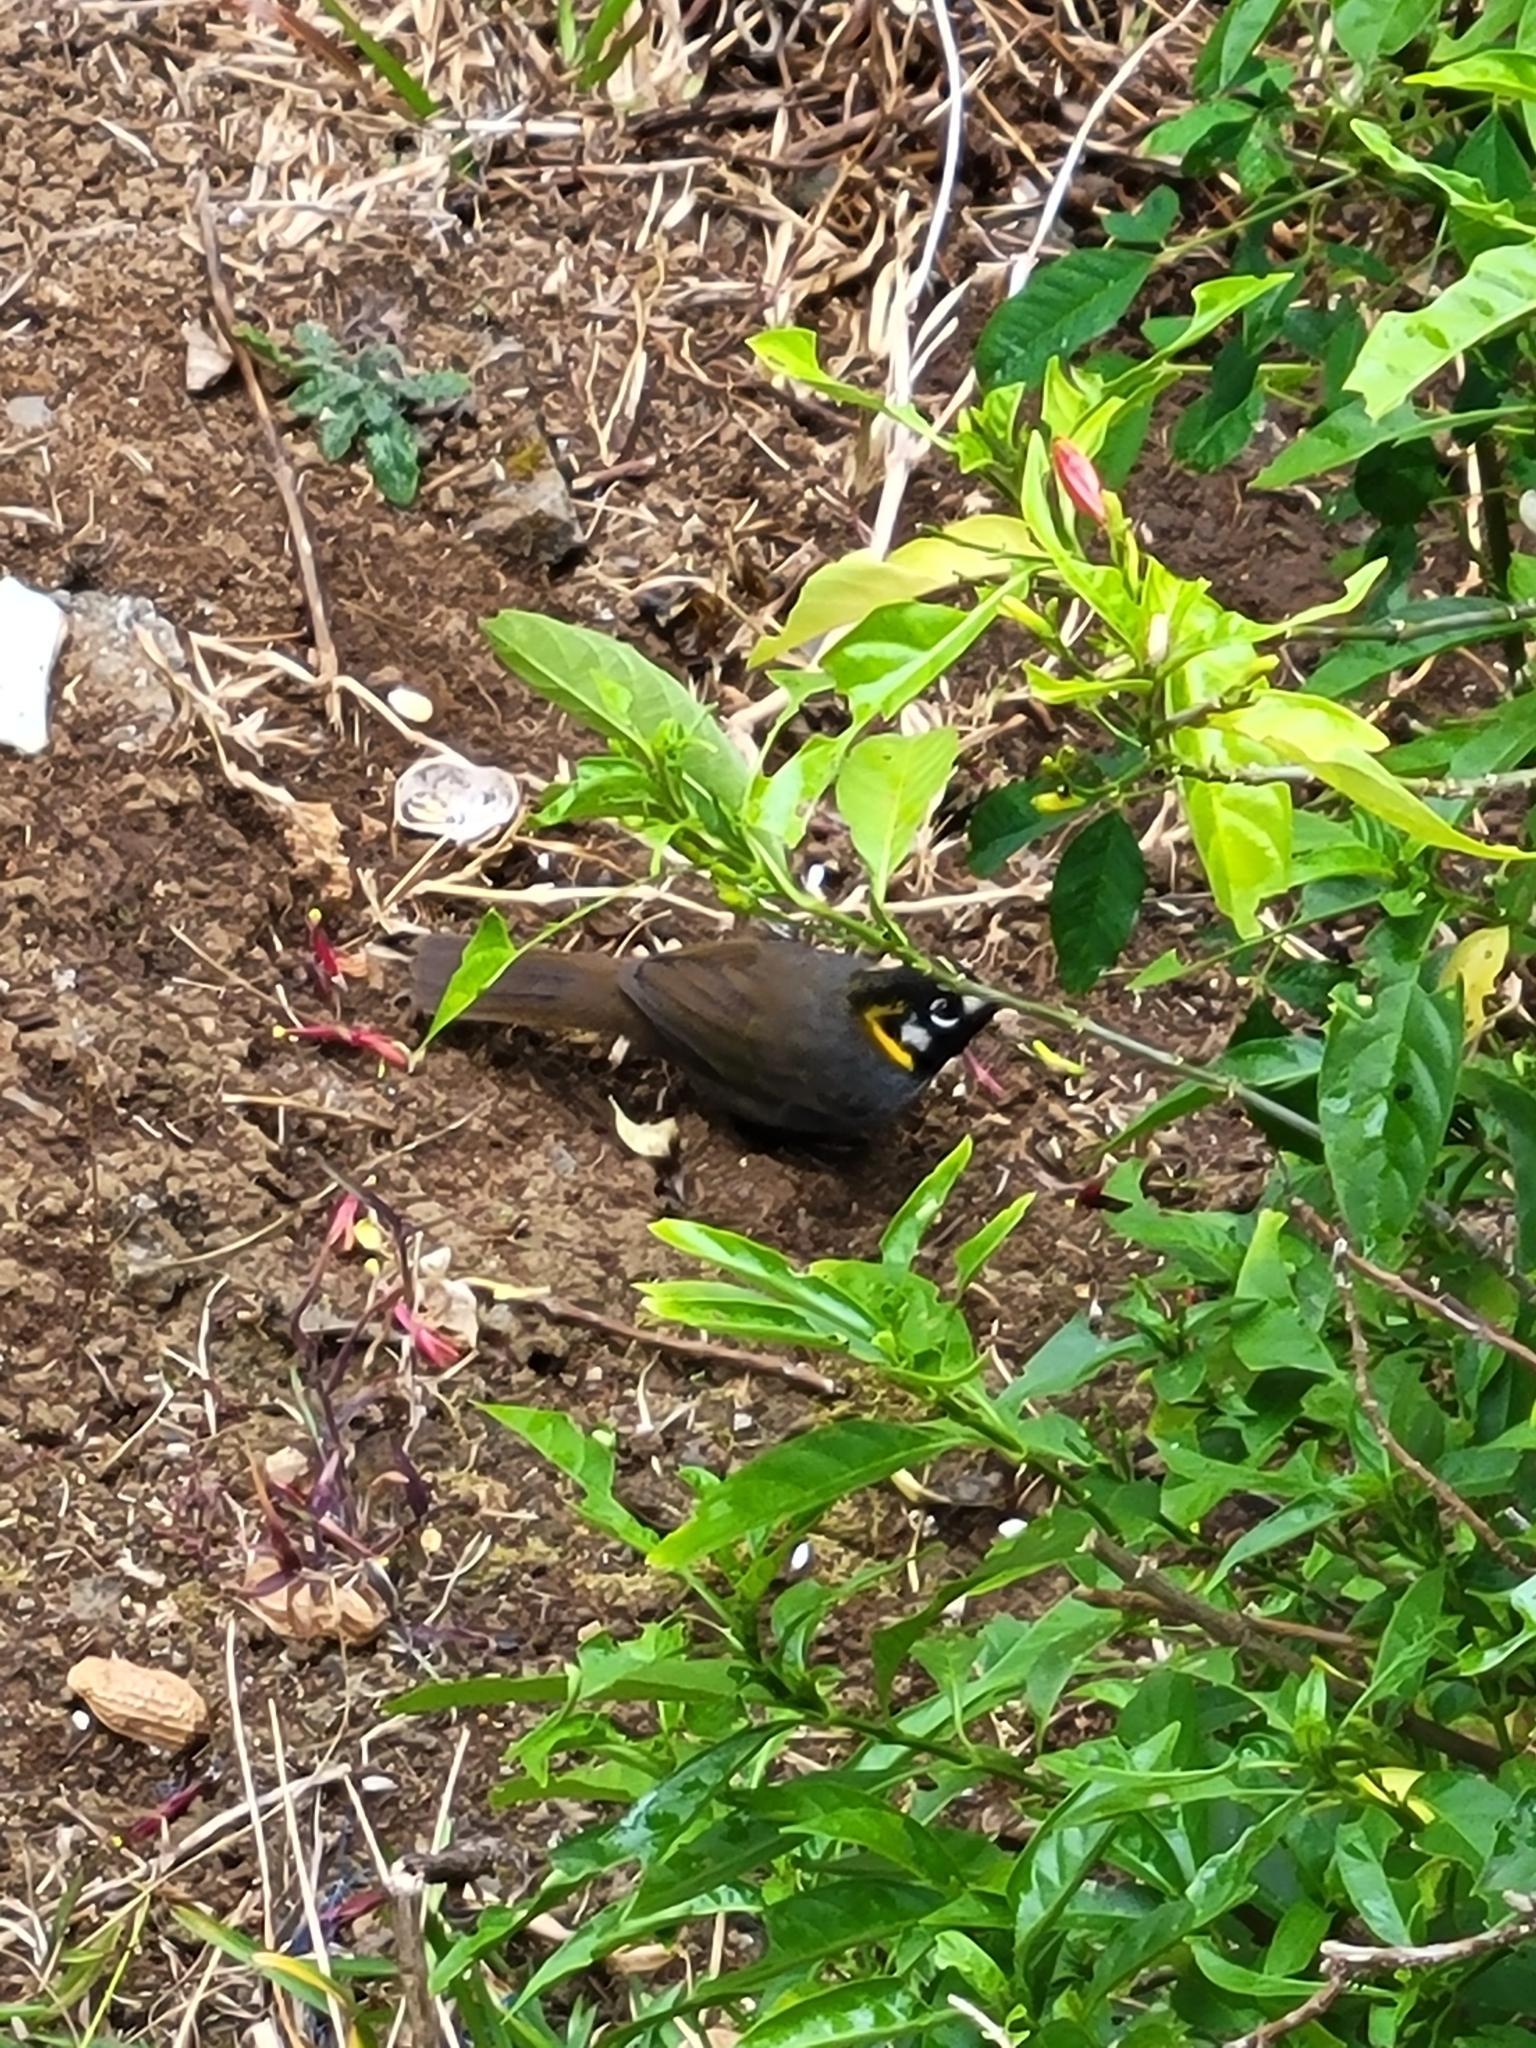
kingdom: Animalia
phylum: Chordata
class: Aves
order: Passeriformes
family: Passerellidae
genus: Melozone
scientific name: Melozone leucotis
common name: White-eared ground-sparrow
